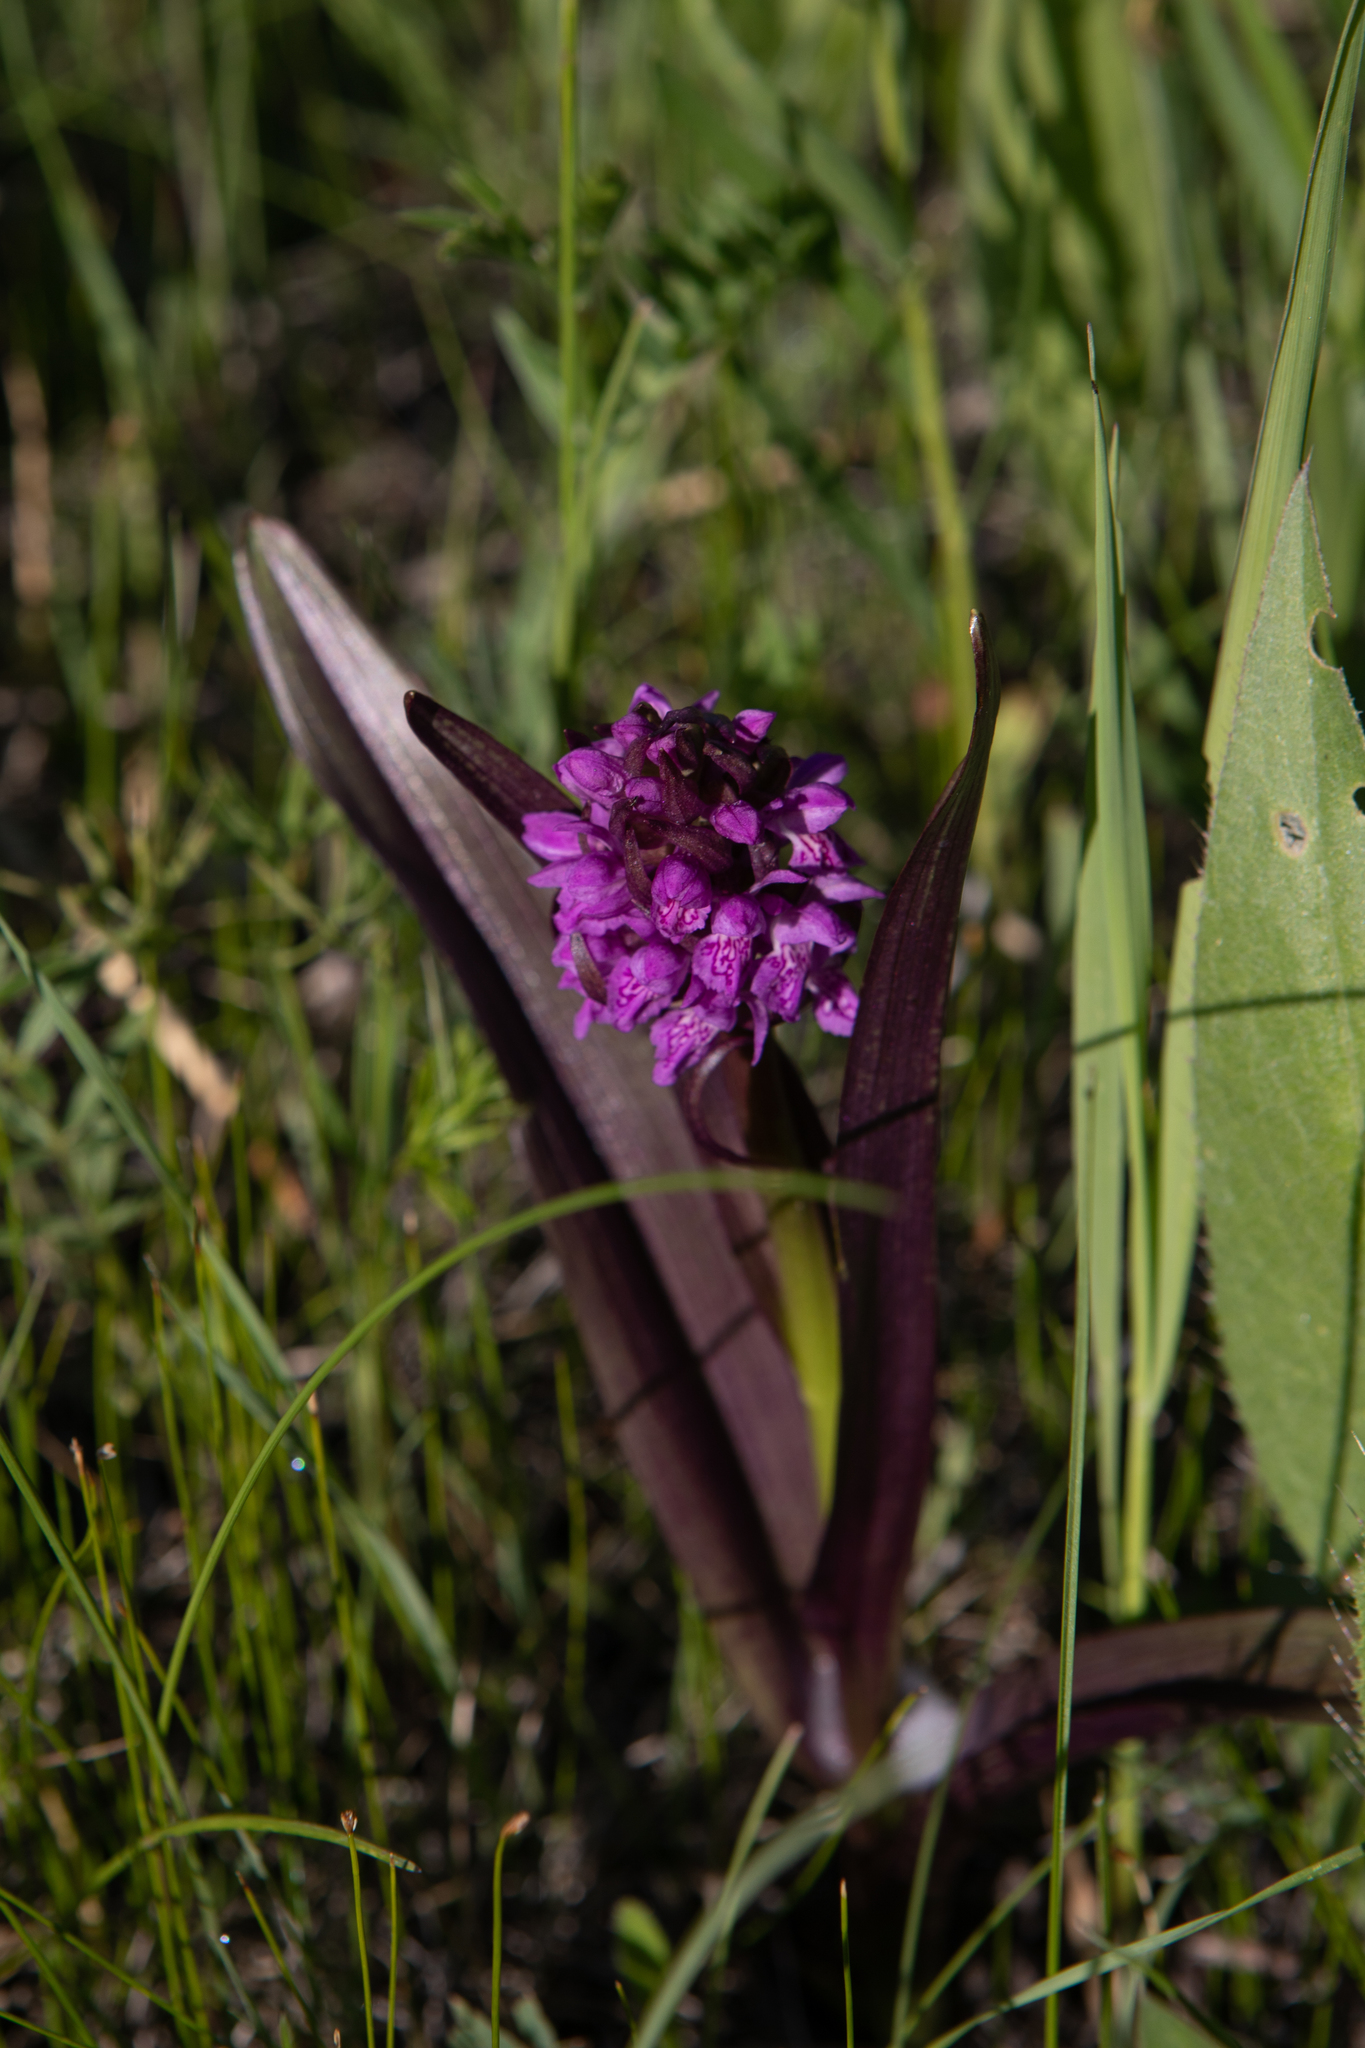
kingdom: Plantae
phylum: Tracheophyta
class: Liliopsida
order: Asparagales
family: Orchidaceae
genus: Dactylorhiza
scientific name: Dactylorhiza incarnata
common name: Early marsh-orchid
